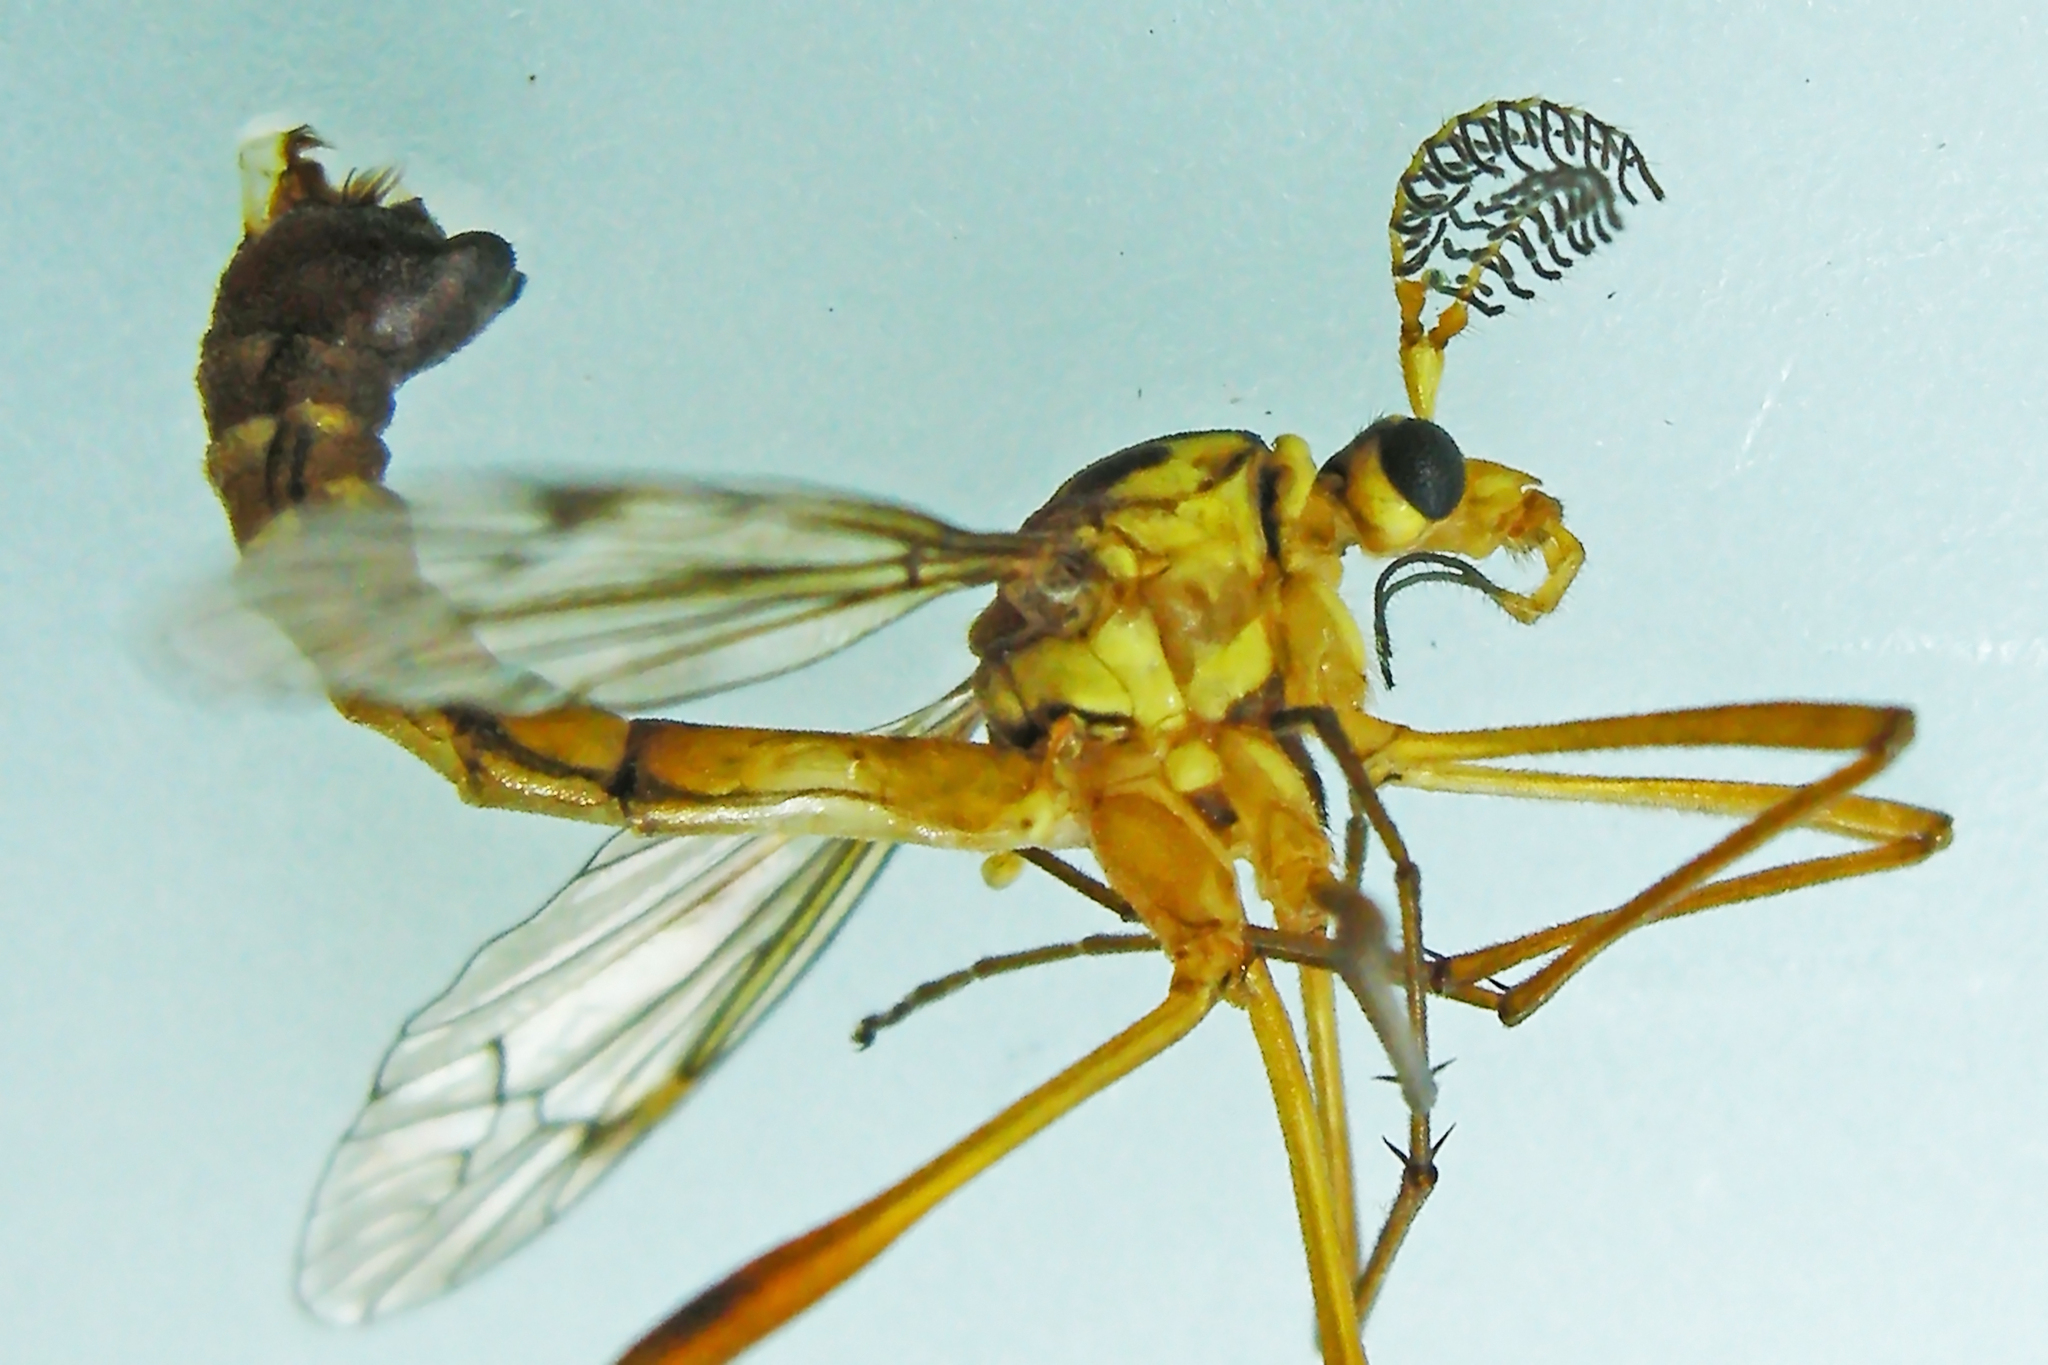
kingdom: Animalia
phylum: Arthropoda
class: Insecta
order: Diptera
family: Tipulidae
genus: Ctenophora
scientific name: Ctenophora nubecula
